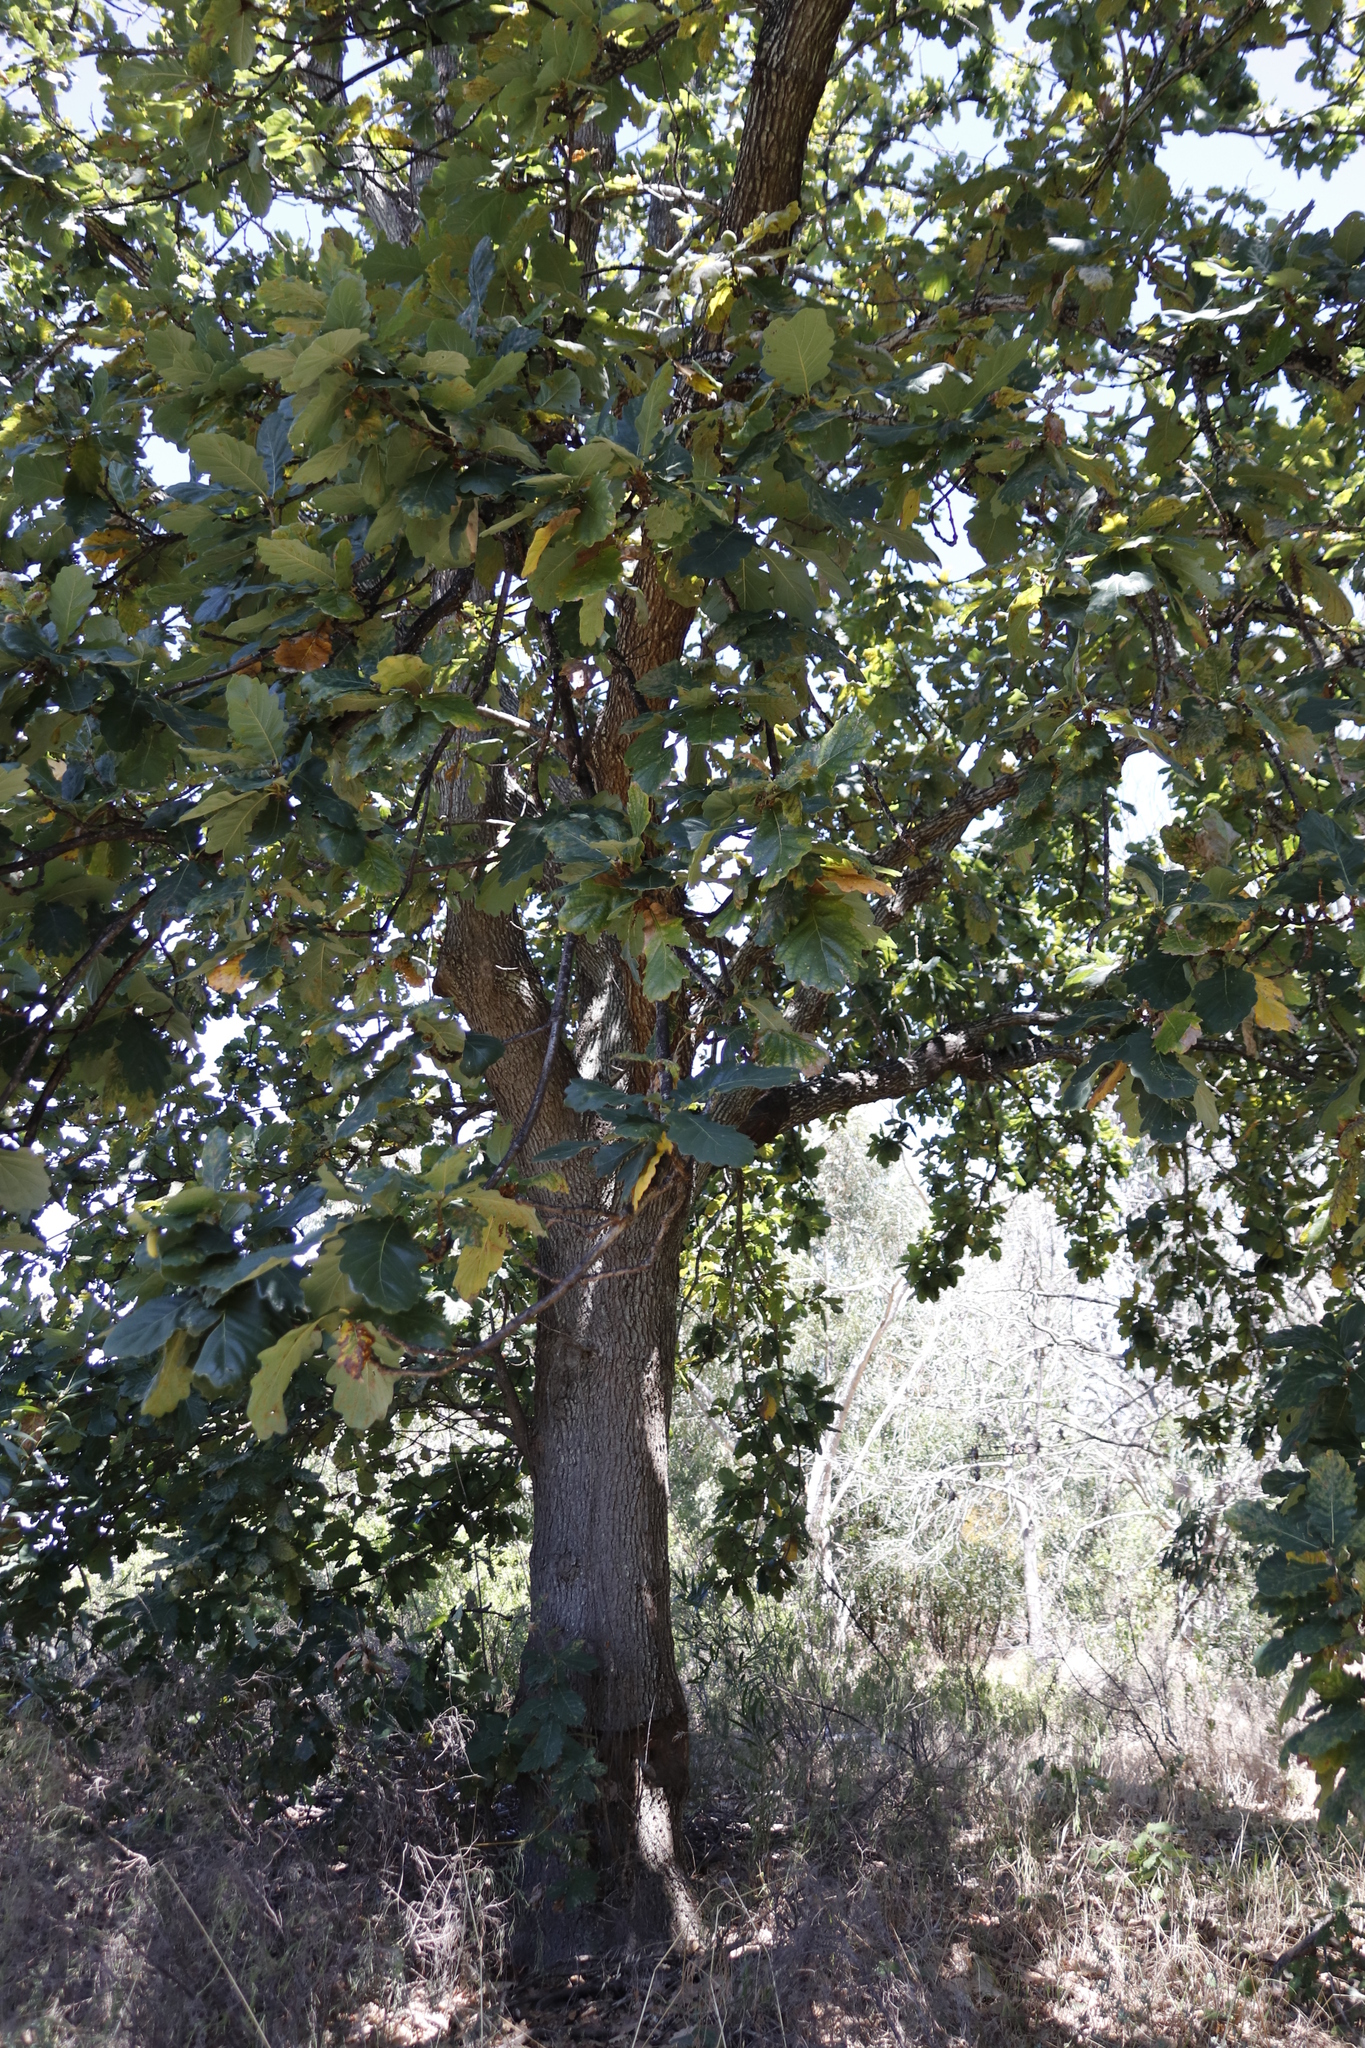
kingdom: Plantae
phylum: Tracheophyta
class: Magnoliopsida
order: Fagales
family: Fagaceae
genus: Quercus
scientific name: Quercus canariensis
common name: Algerian oak
